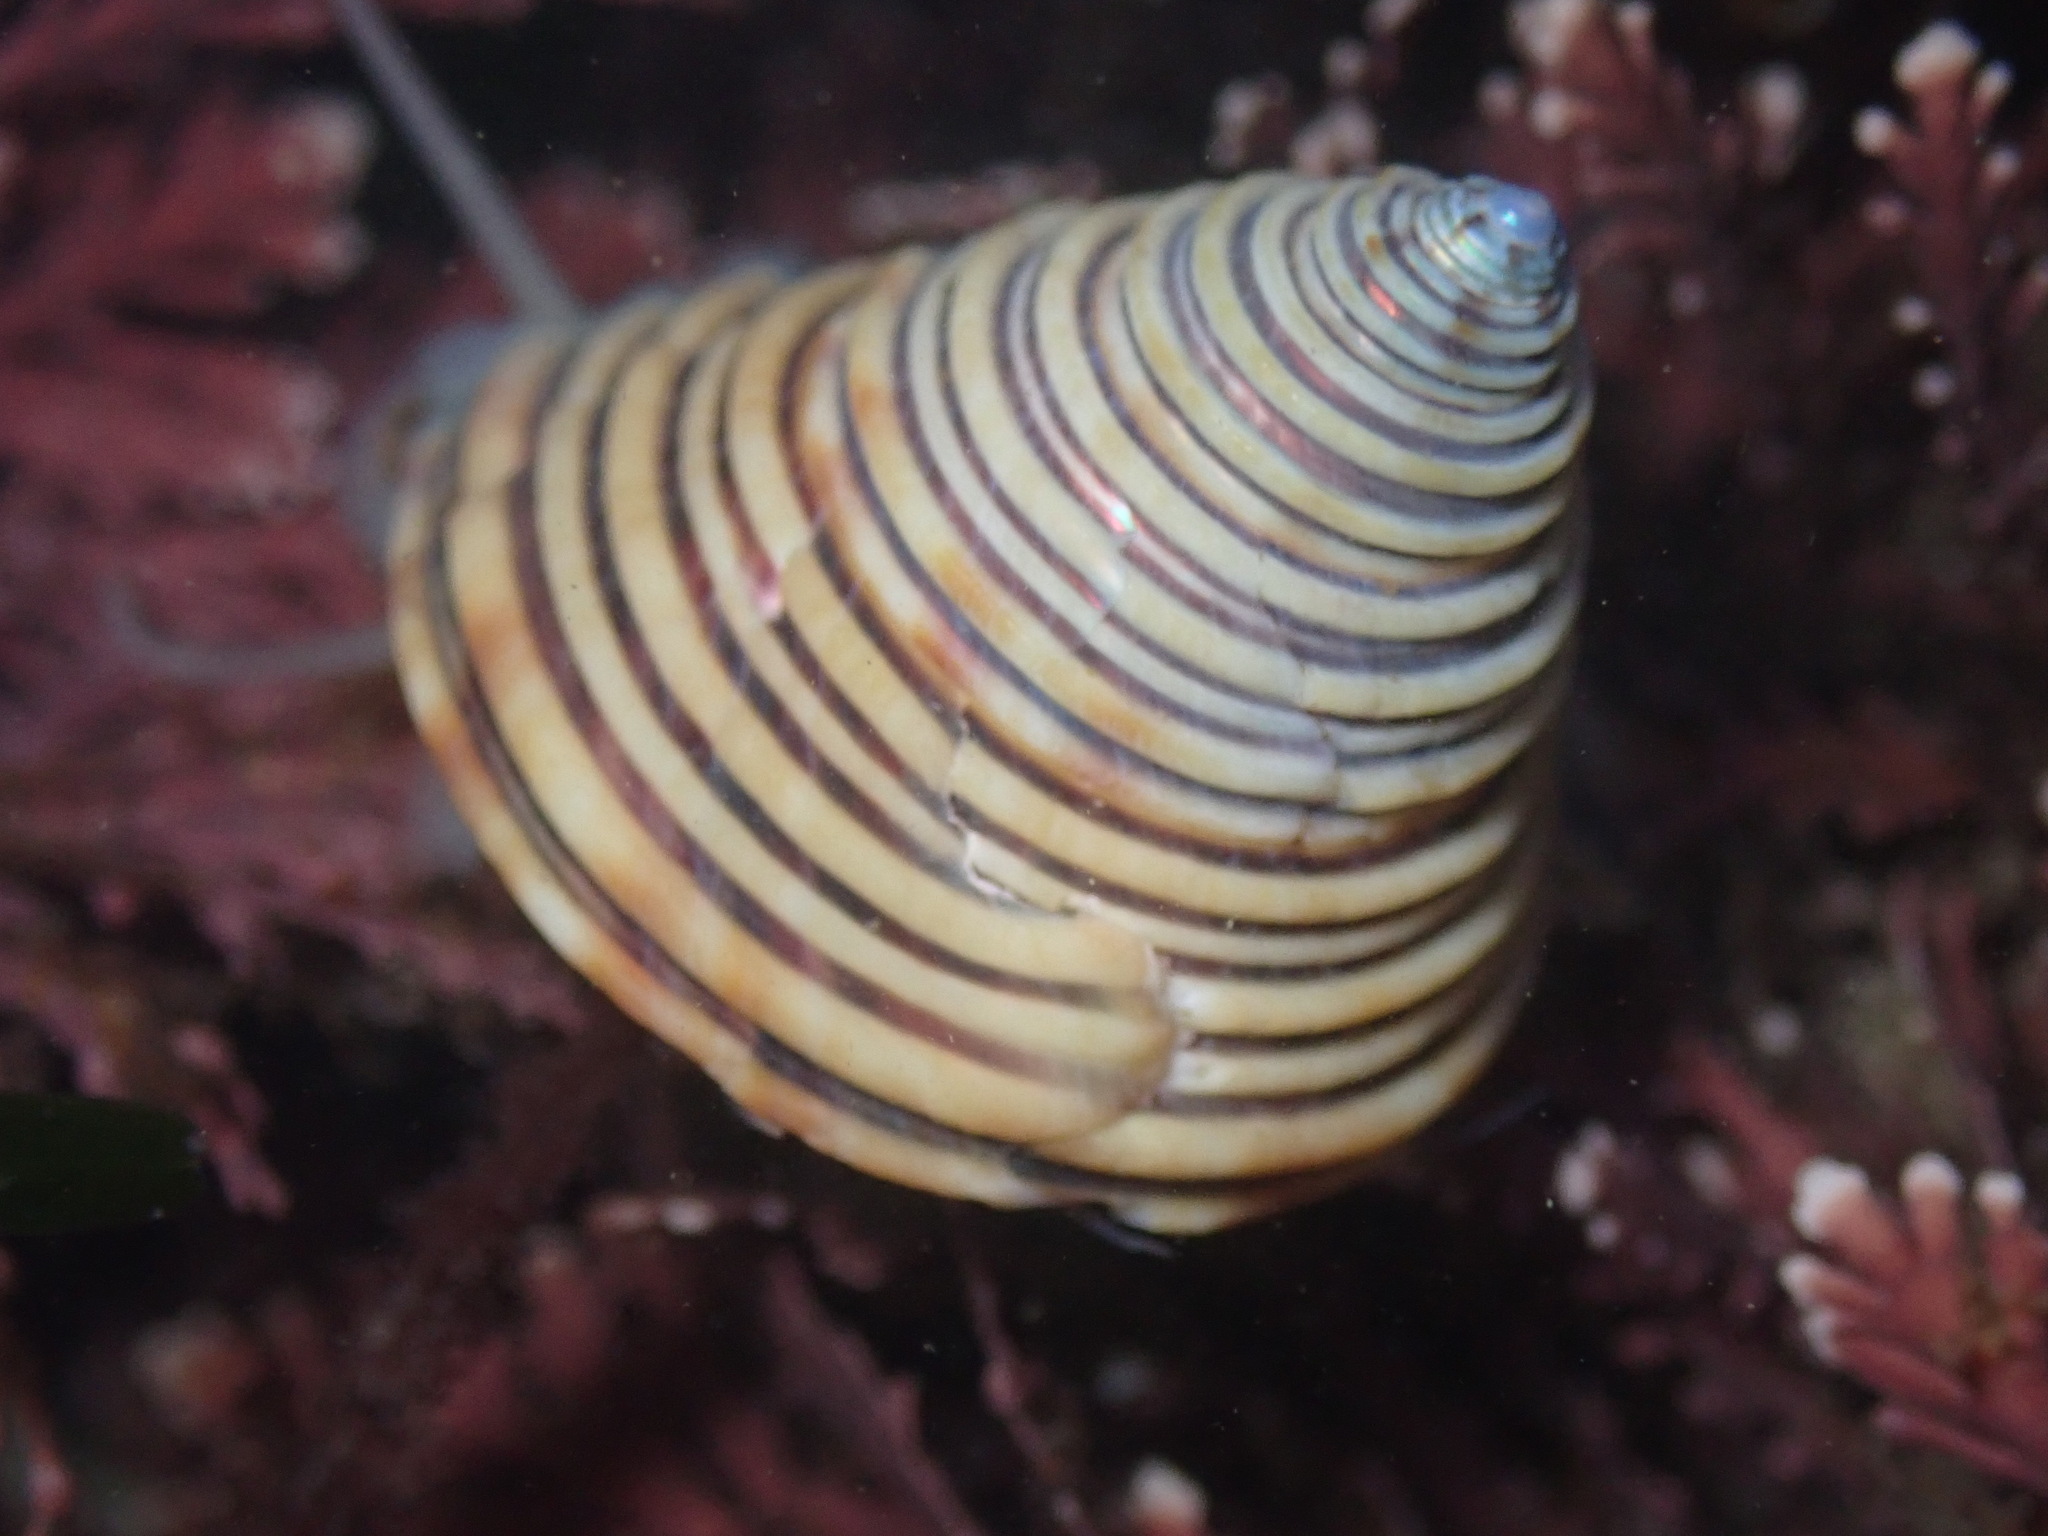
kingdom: Animalia
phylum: Mollusca
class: Gastropoda
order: Trochida
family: Calliostomatidae
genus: Calliostoma
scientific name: Calliostoma canaliculatum
